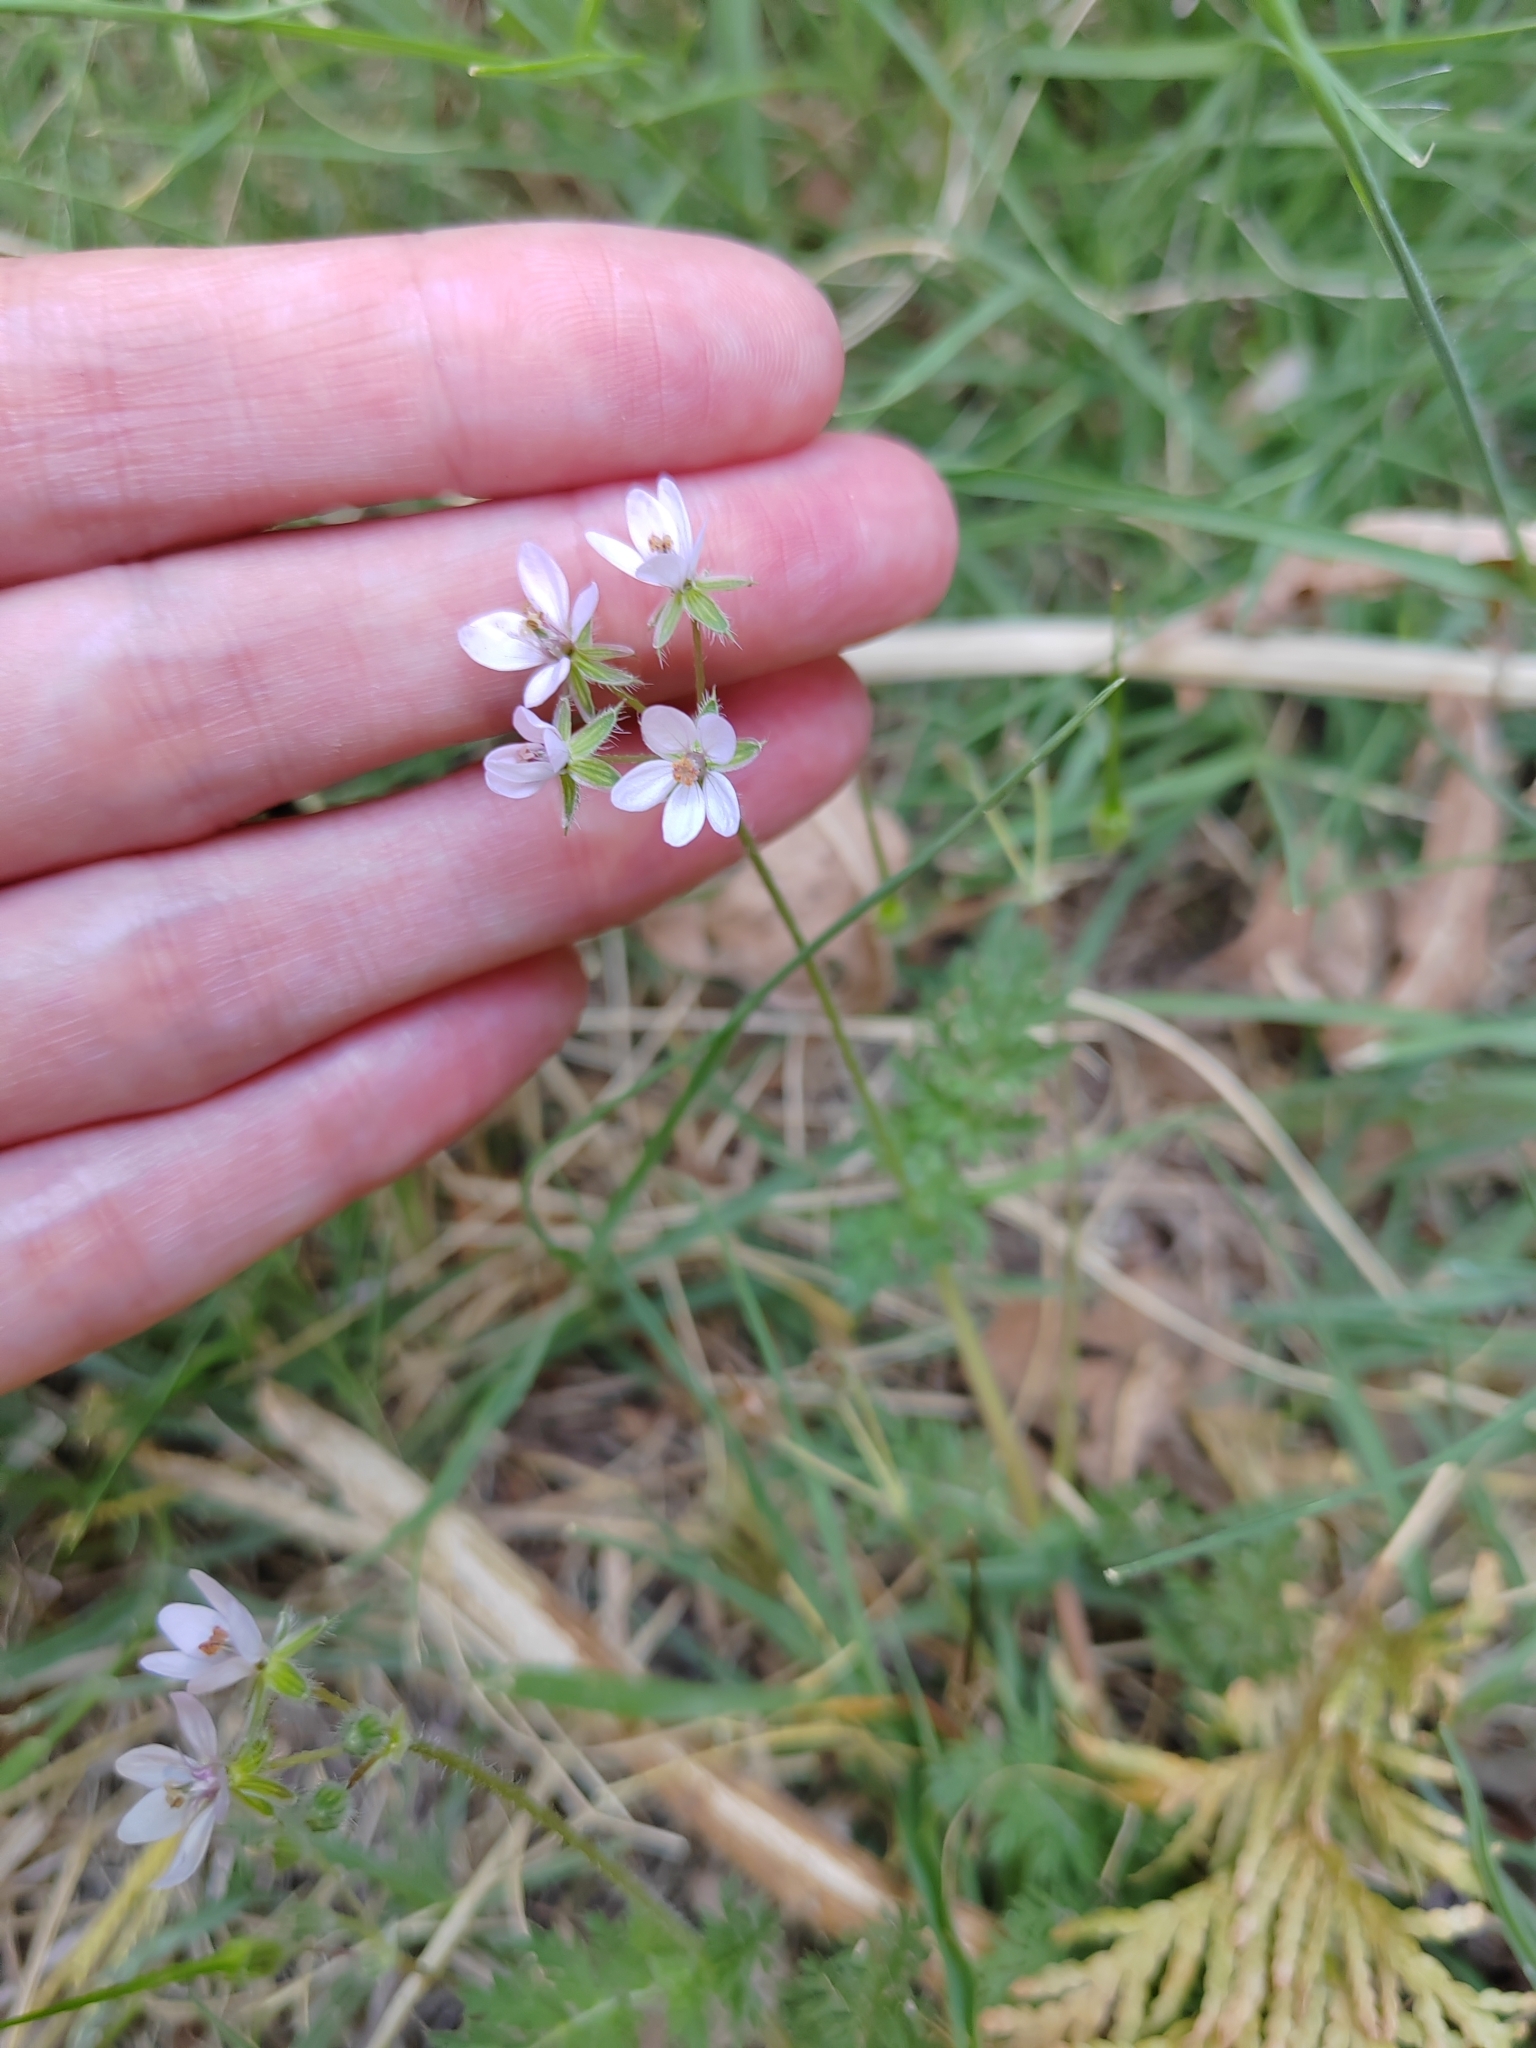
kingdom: Plantae
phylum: Tracheophyta
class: Magnoliopsida
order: Geraniales
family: Geraniaceae
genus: Erodium
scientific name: Erodium cicutarium
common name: Common stork's-bill
